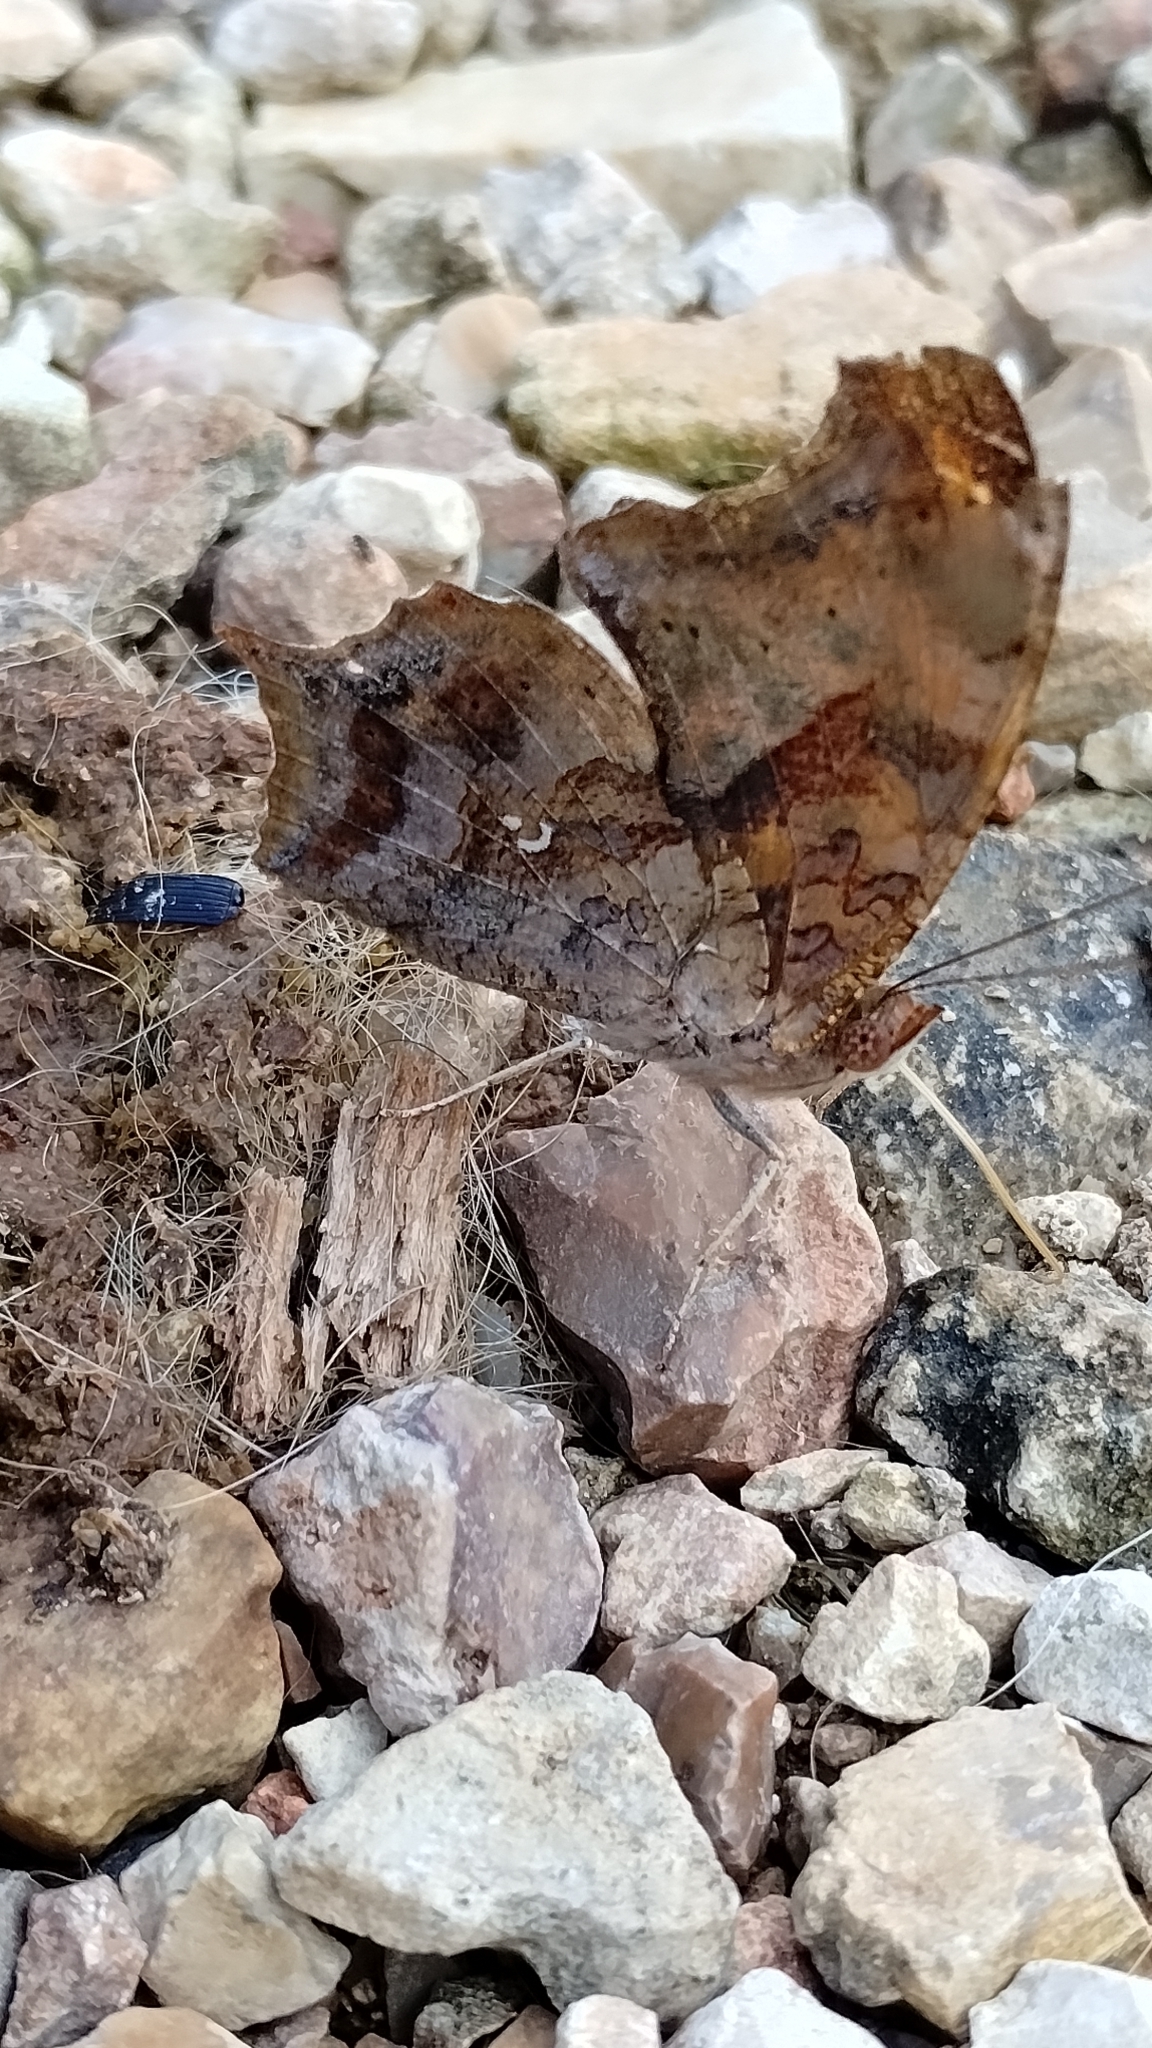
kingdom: Animalia
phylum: Arthropoda
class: Insecta
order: Lepidoptera
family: Nymphalidae
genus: Polygonia
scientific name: Polygonia interrogationis
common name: Question mark
